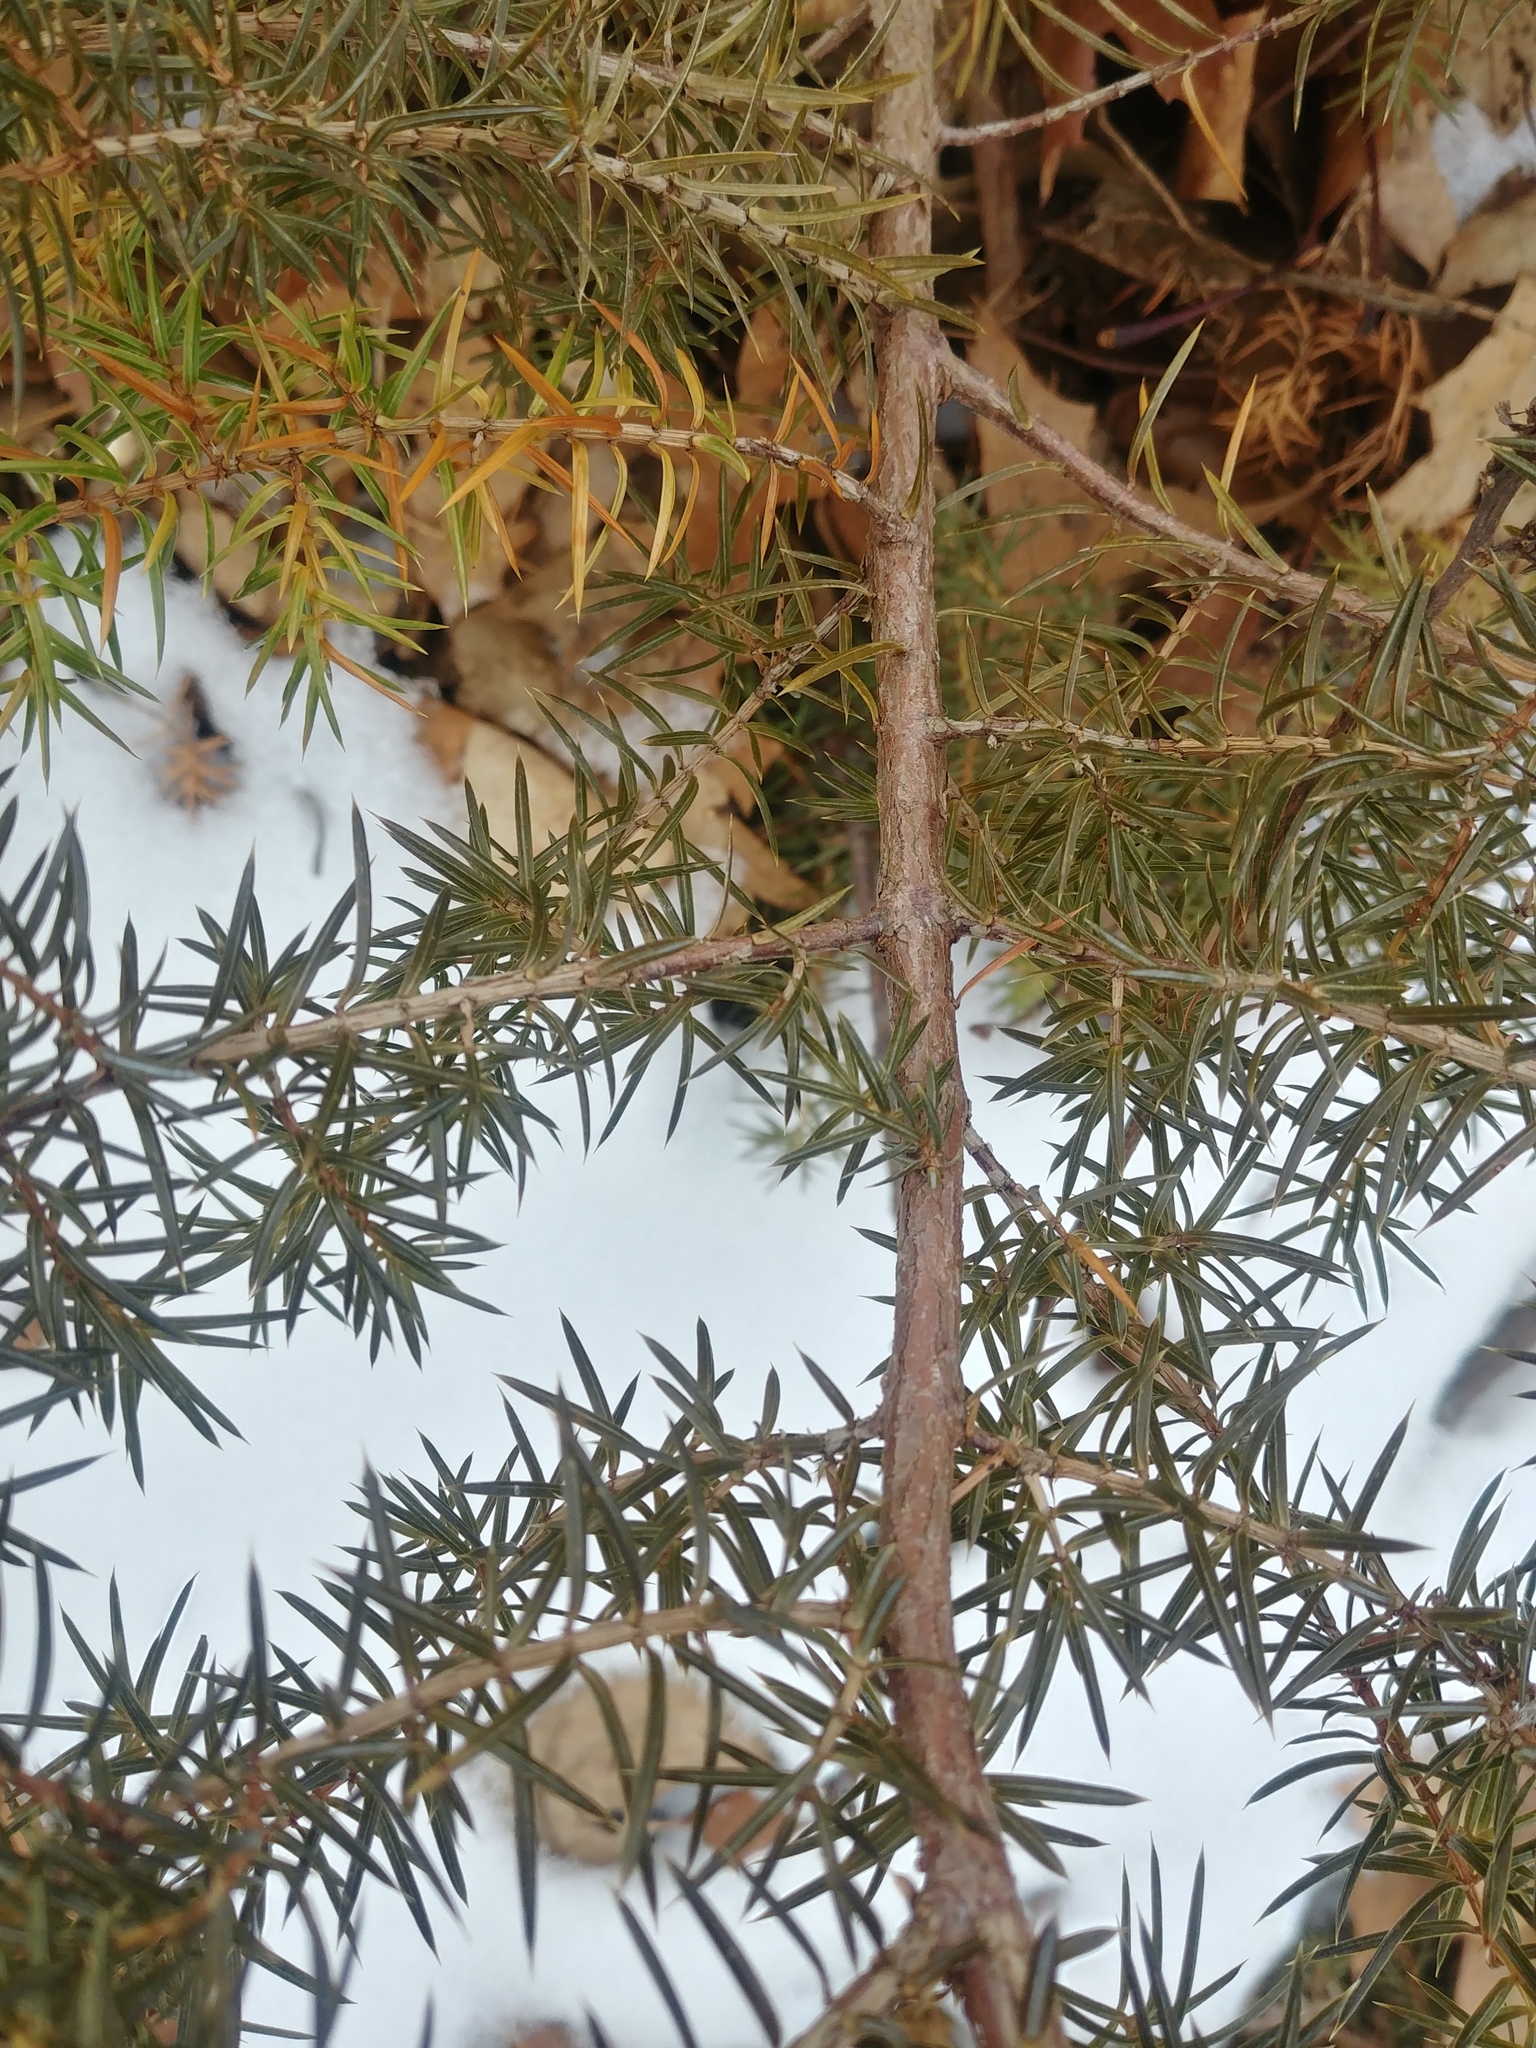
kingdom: Plantae
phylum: Tracheophyta
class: Pinopsida
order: Pinales
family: Cupressaceae
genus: Juniperus
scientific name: Juniperus communis
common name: Common juniper
